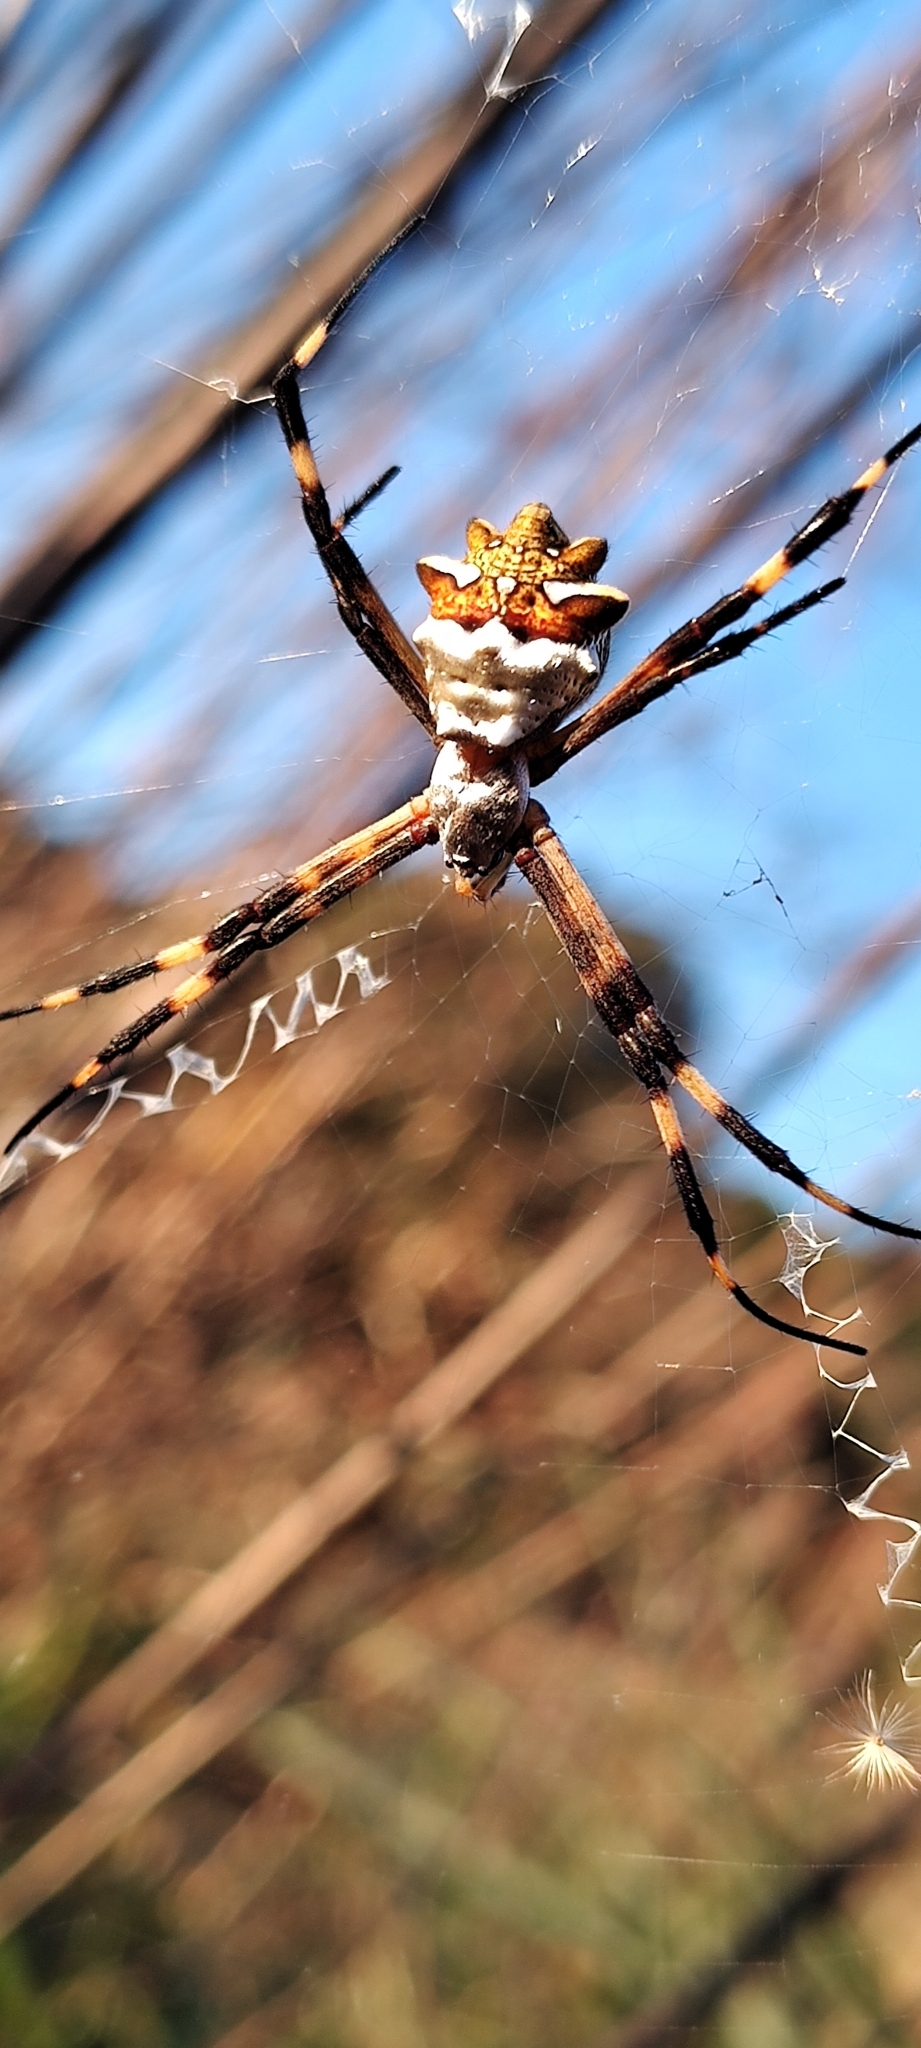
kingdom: Animalia
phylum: Arthropoda
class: Arachnida
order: Araneae
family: Araneidae
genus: Argiope
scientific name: Argiope argentata
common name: Orb weavers
